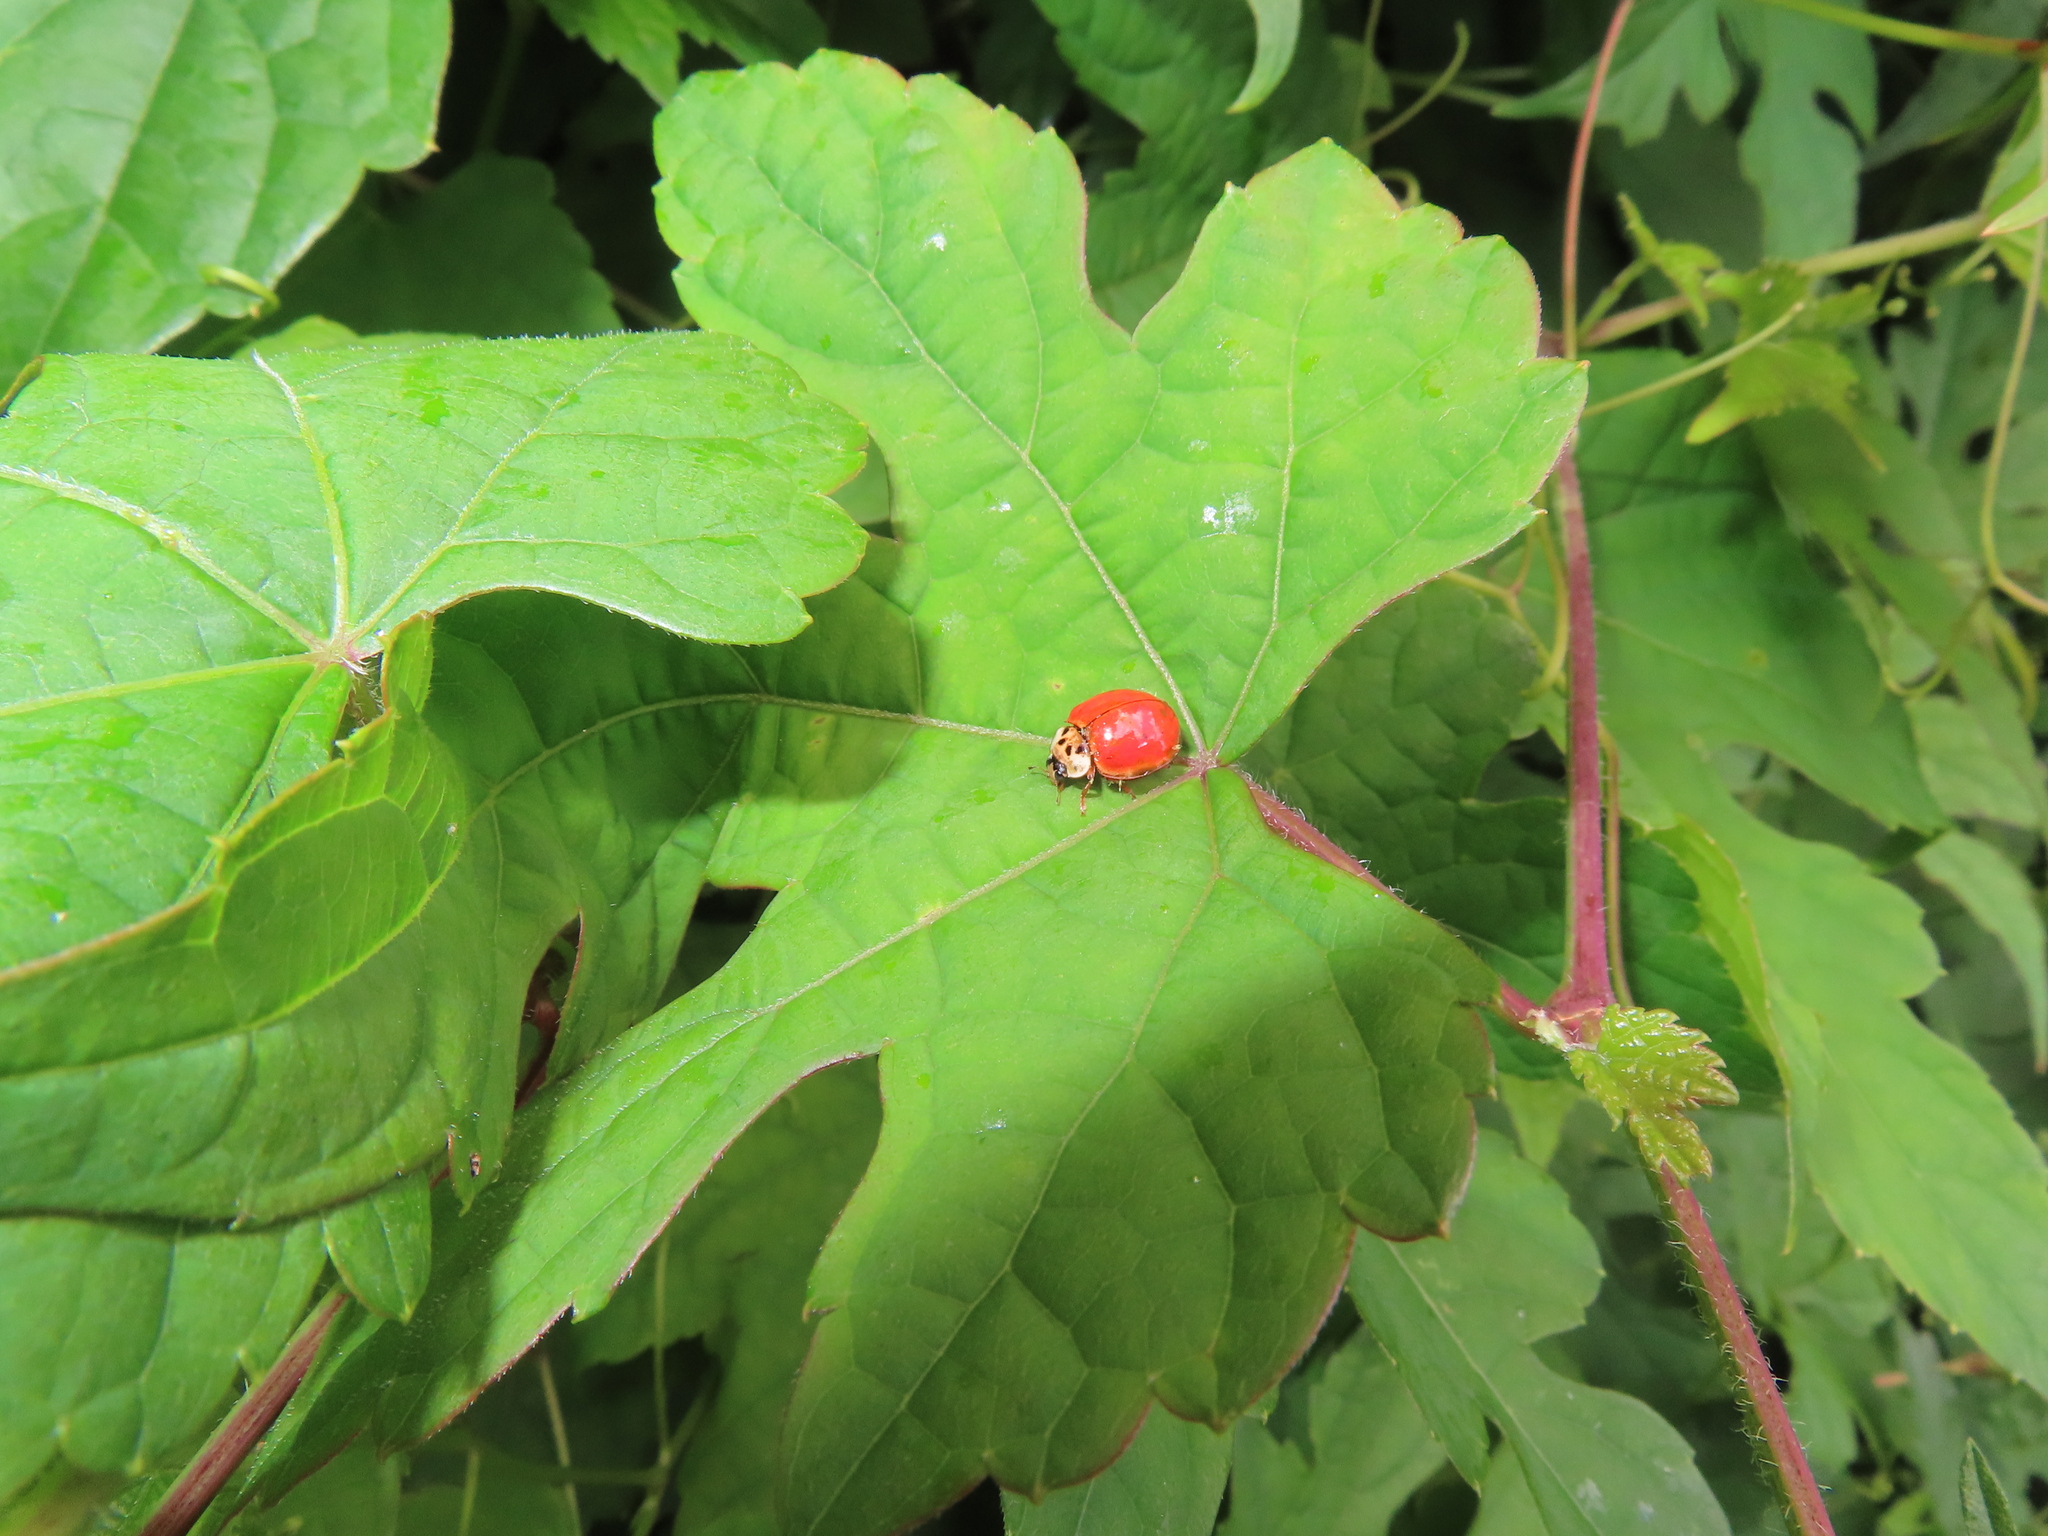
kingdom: Animalia
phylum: Arthropoda
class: Insecta
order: Coleoptera
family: Coccinellidae
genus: Harmonia
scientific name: Harmonia axyridis
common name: Harlequin ladybird
